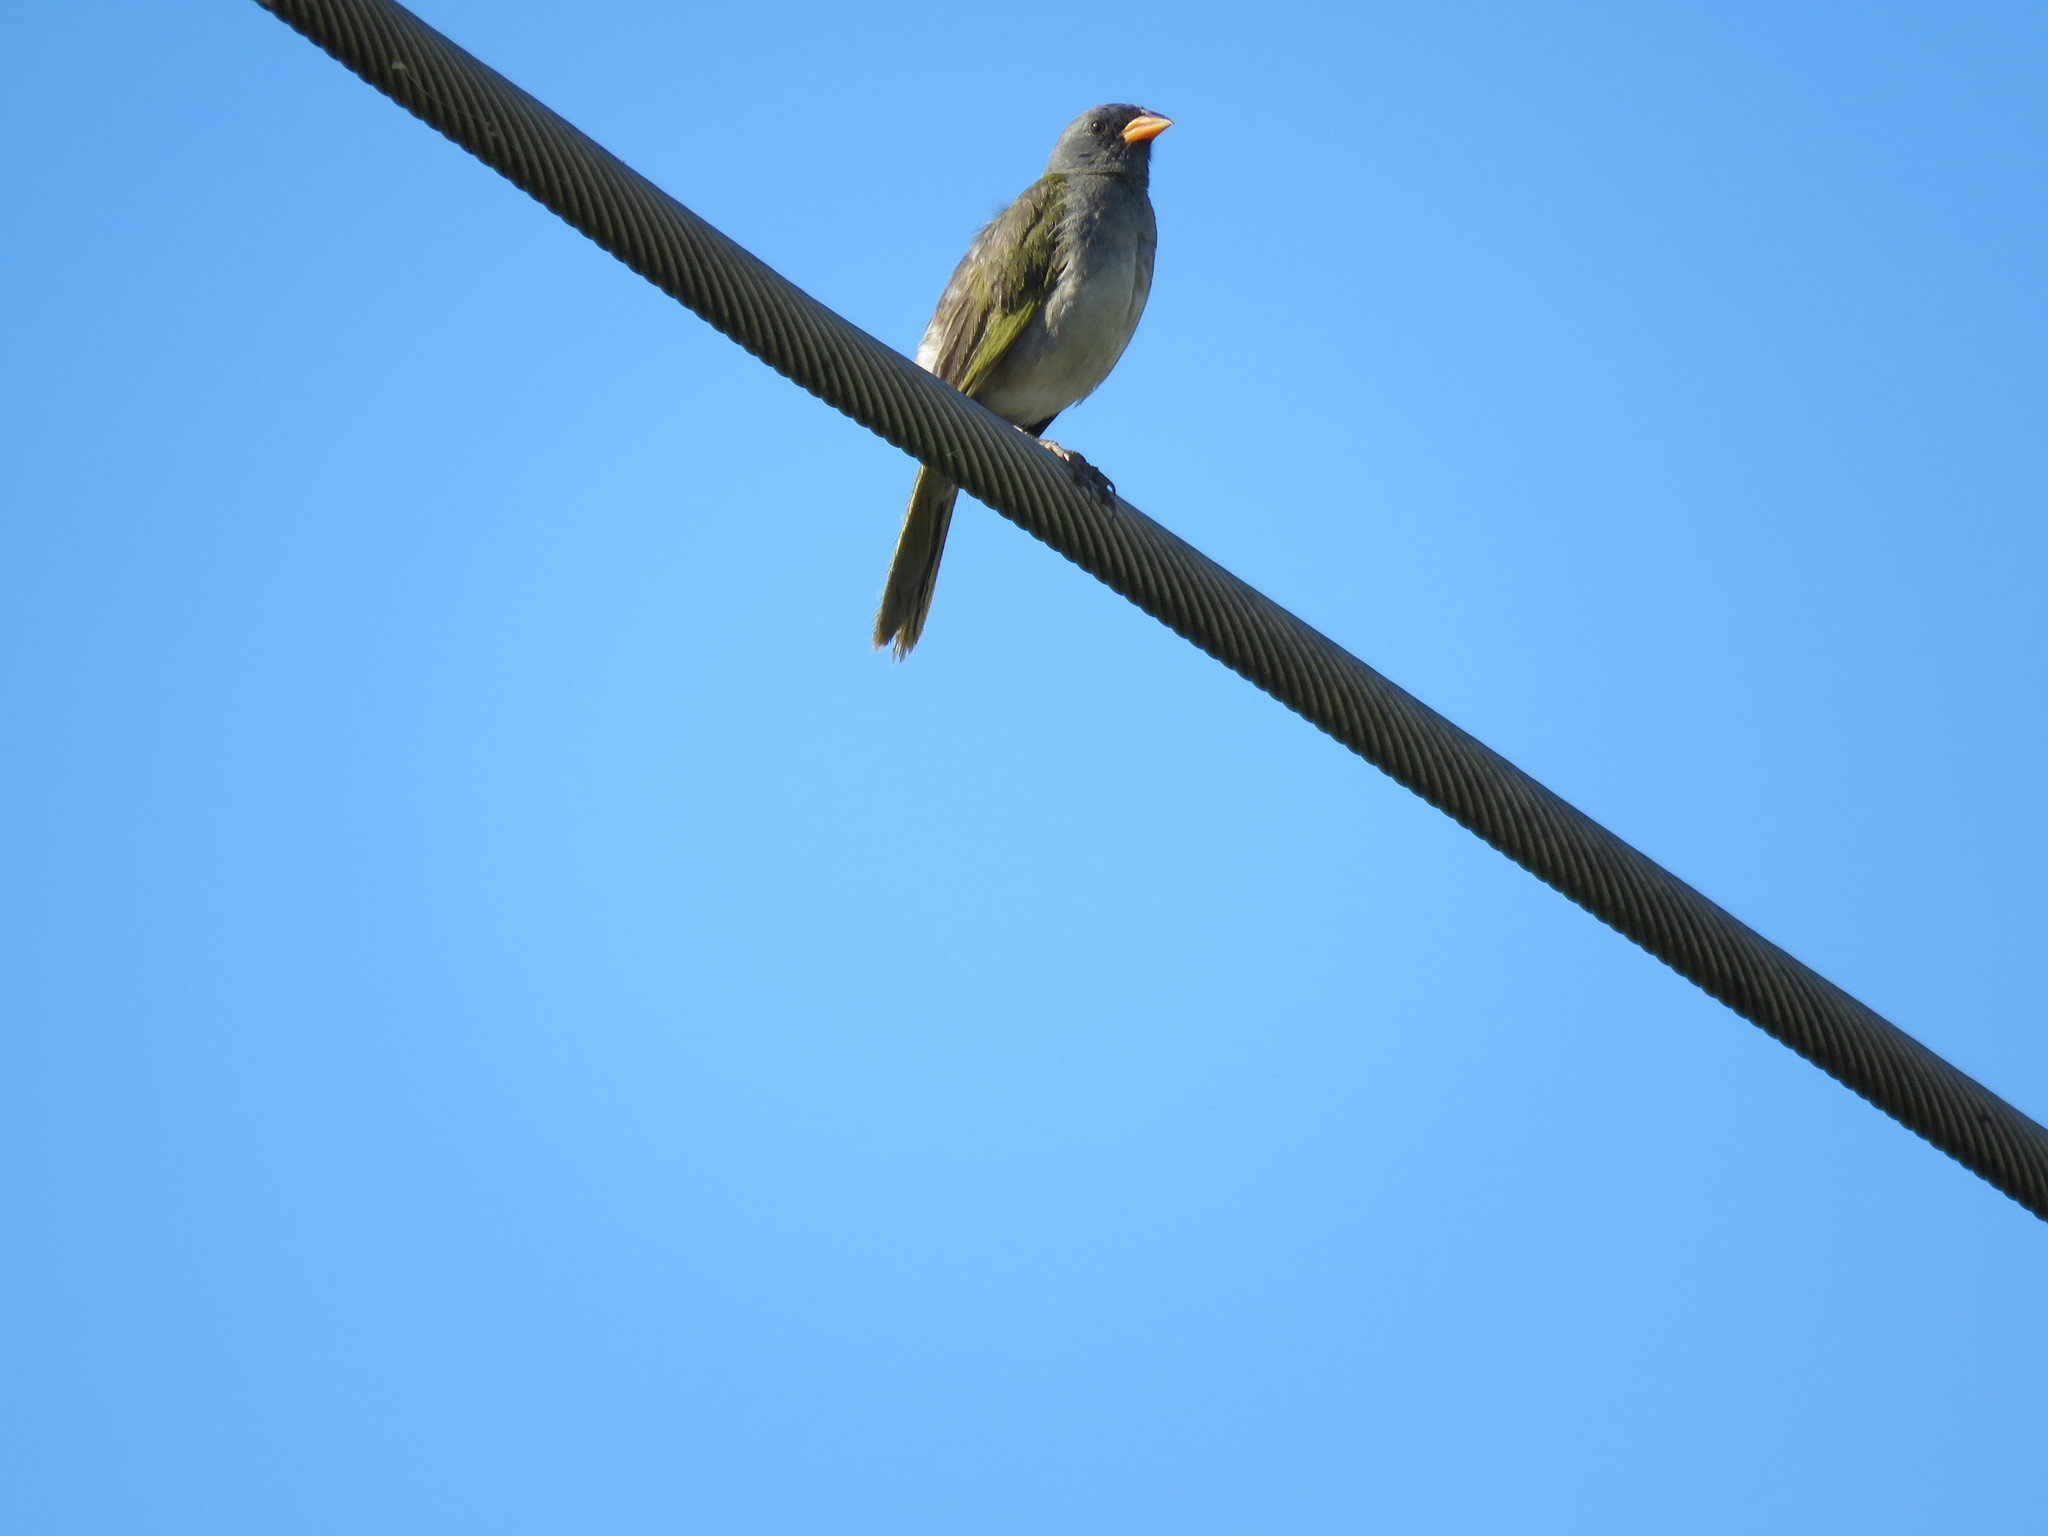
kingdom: Animalia
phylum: Chordata
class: Aves
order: Passeriformes
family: Thraupidae
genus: Embernagra
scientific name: Embernagra platensis
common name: Pampa finch
